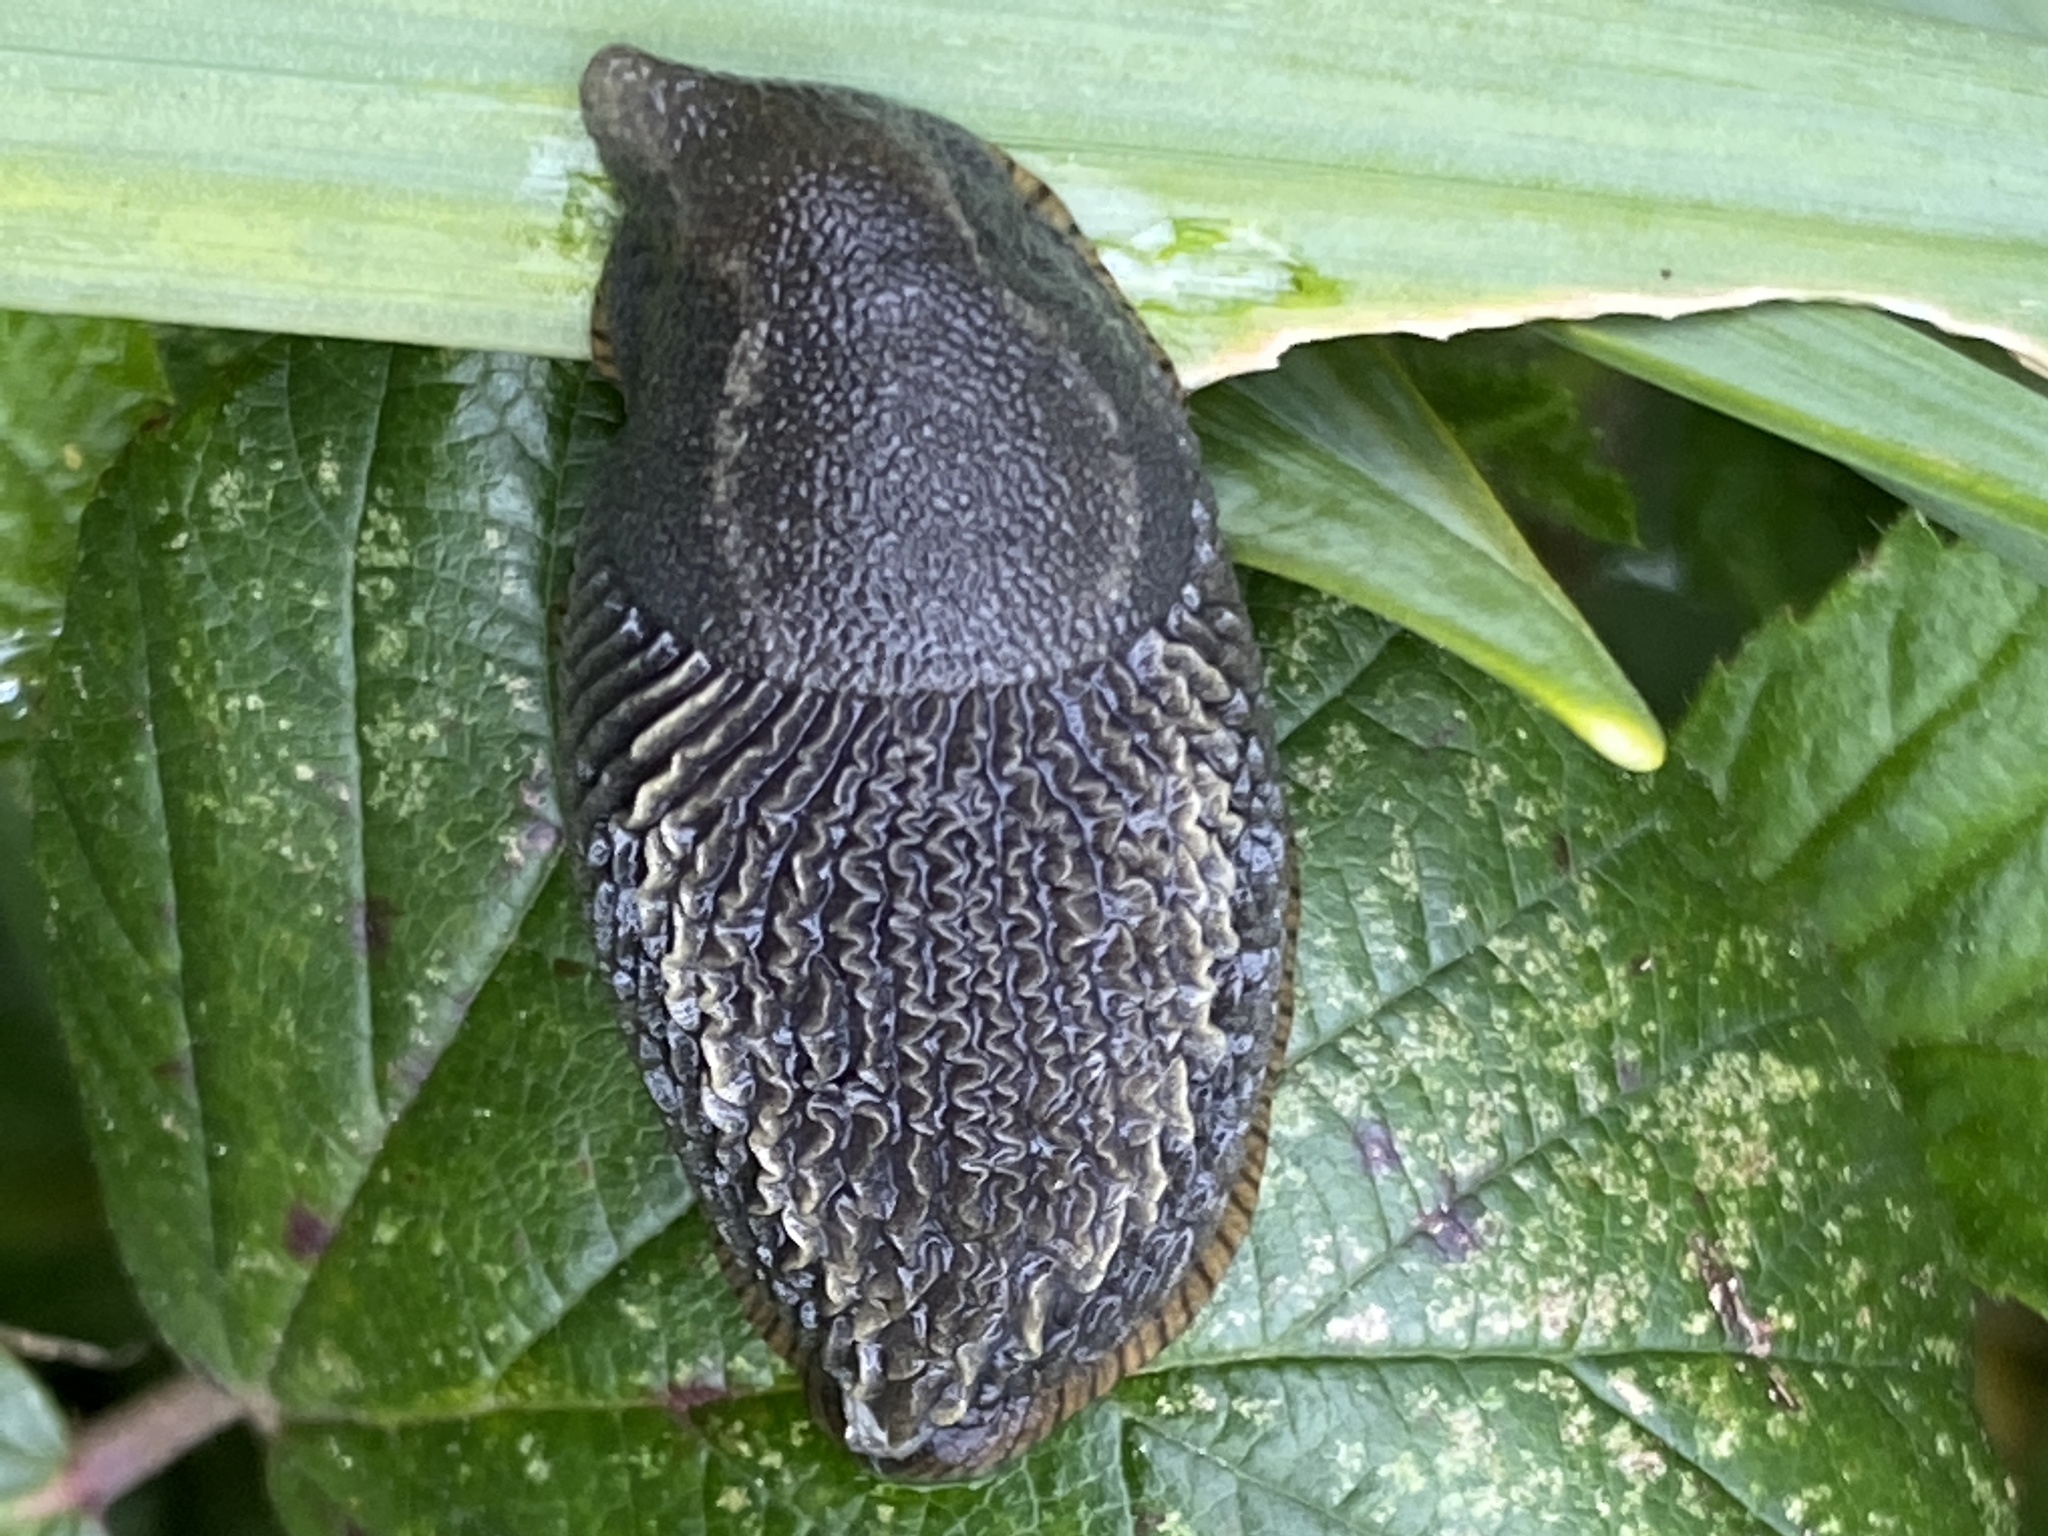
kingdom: Animalia
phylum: Mollusca
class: Gastropoda
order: Stylommatophora
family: Arionidae
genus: Arion
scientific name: Arion vulgaris
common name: Lusitanian slug
